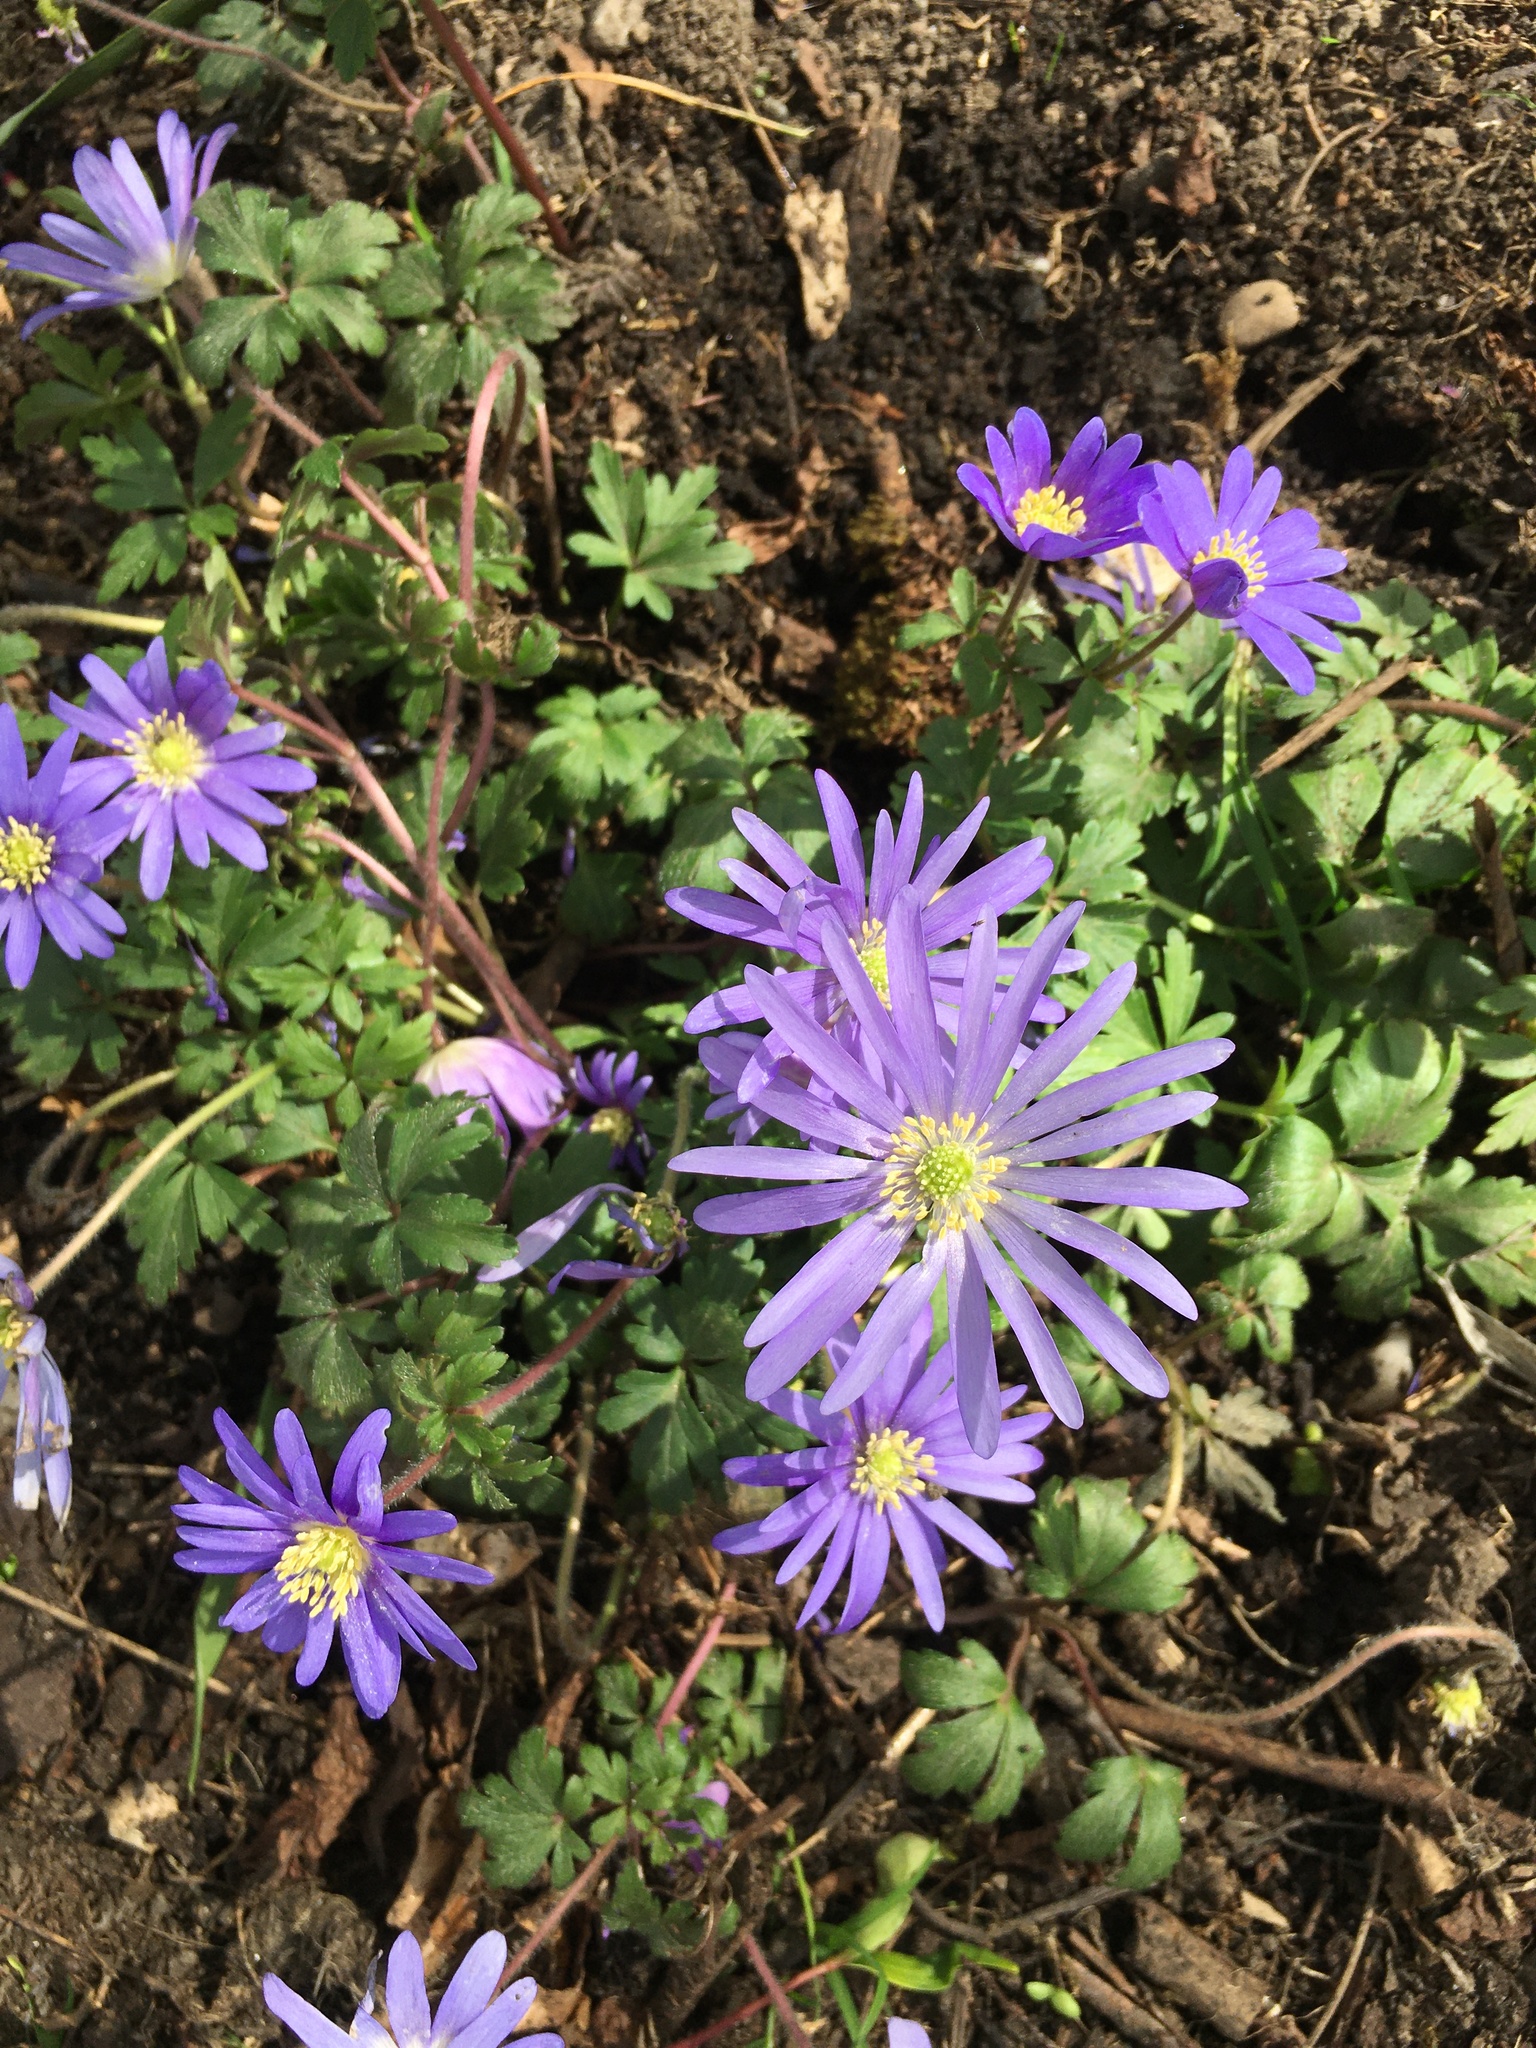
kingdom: Plantae
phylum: Tracheophyta
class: Magnoliopsida
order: Ranunculales
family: Ranunculaceae
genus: Anemone
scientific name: Anemone blanda
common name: Balkan anemone
